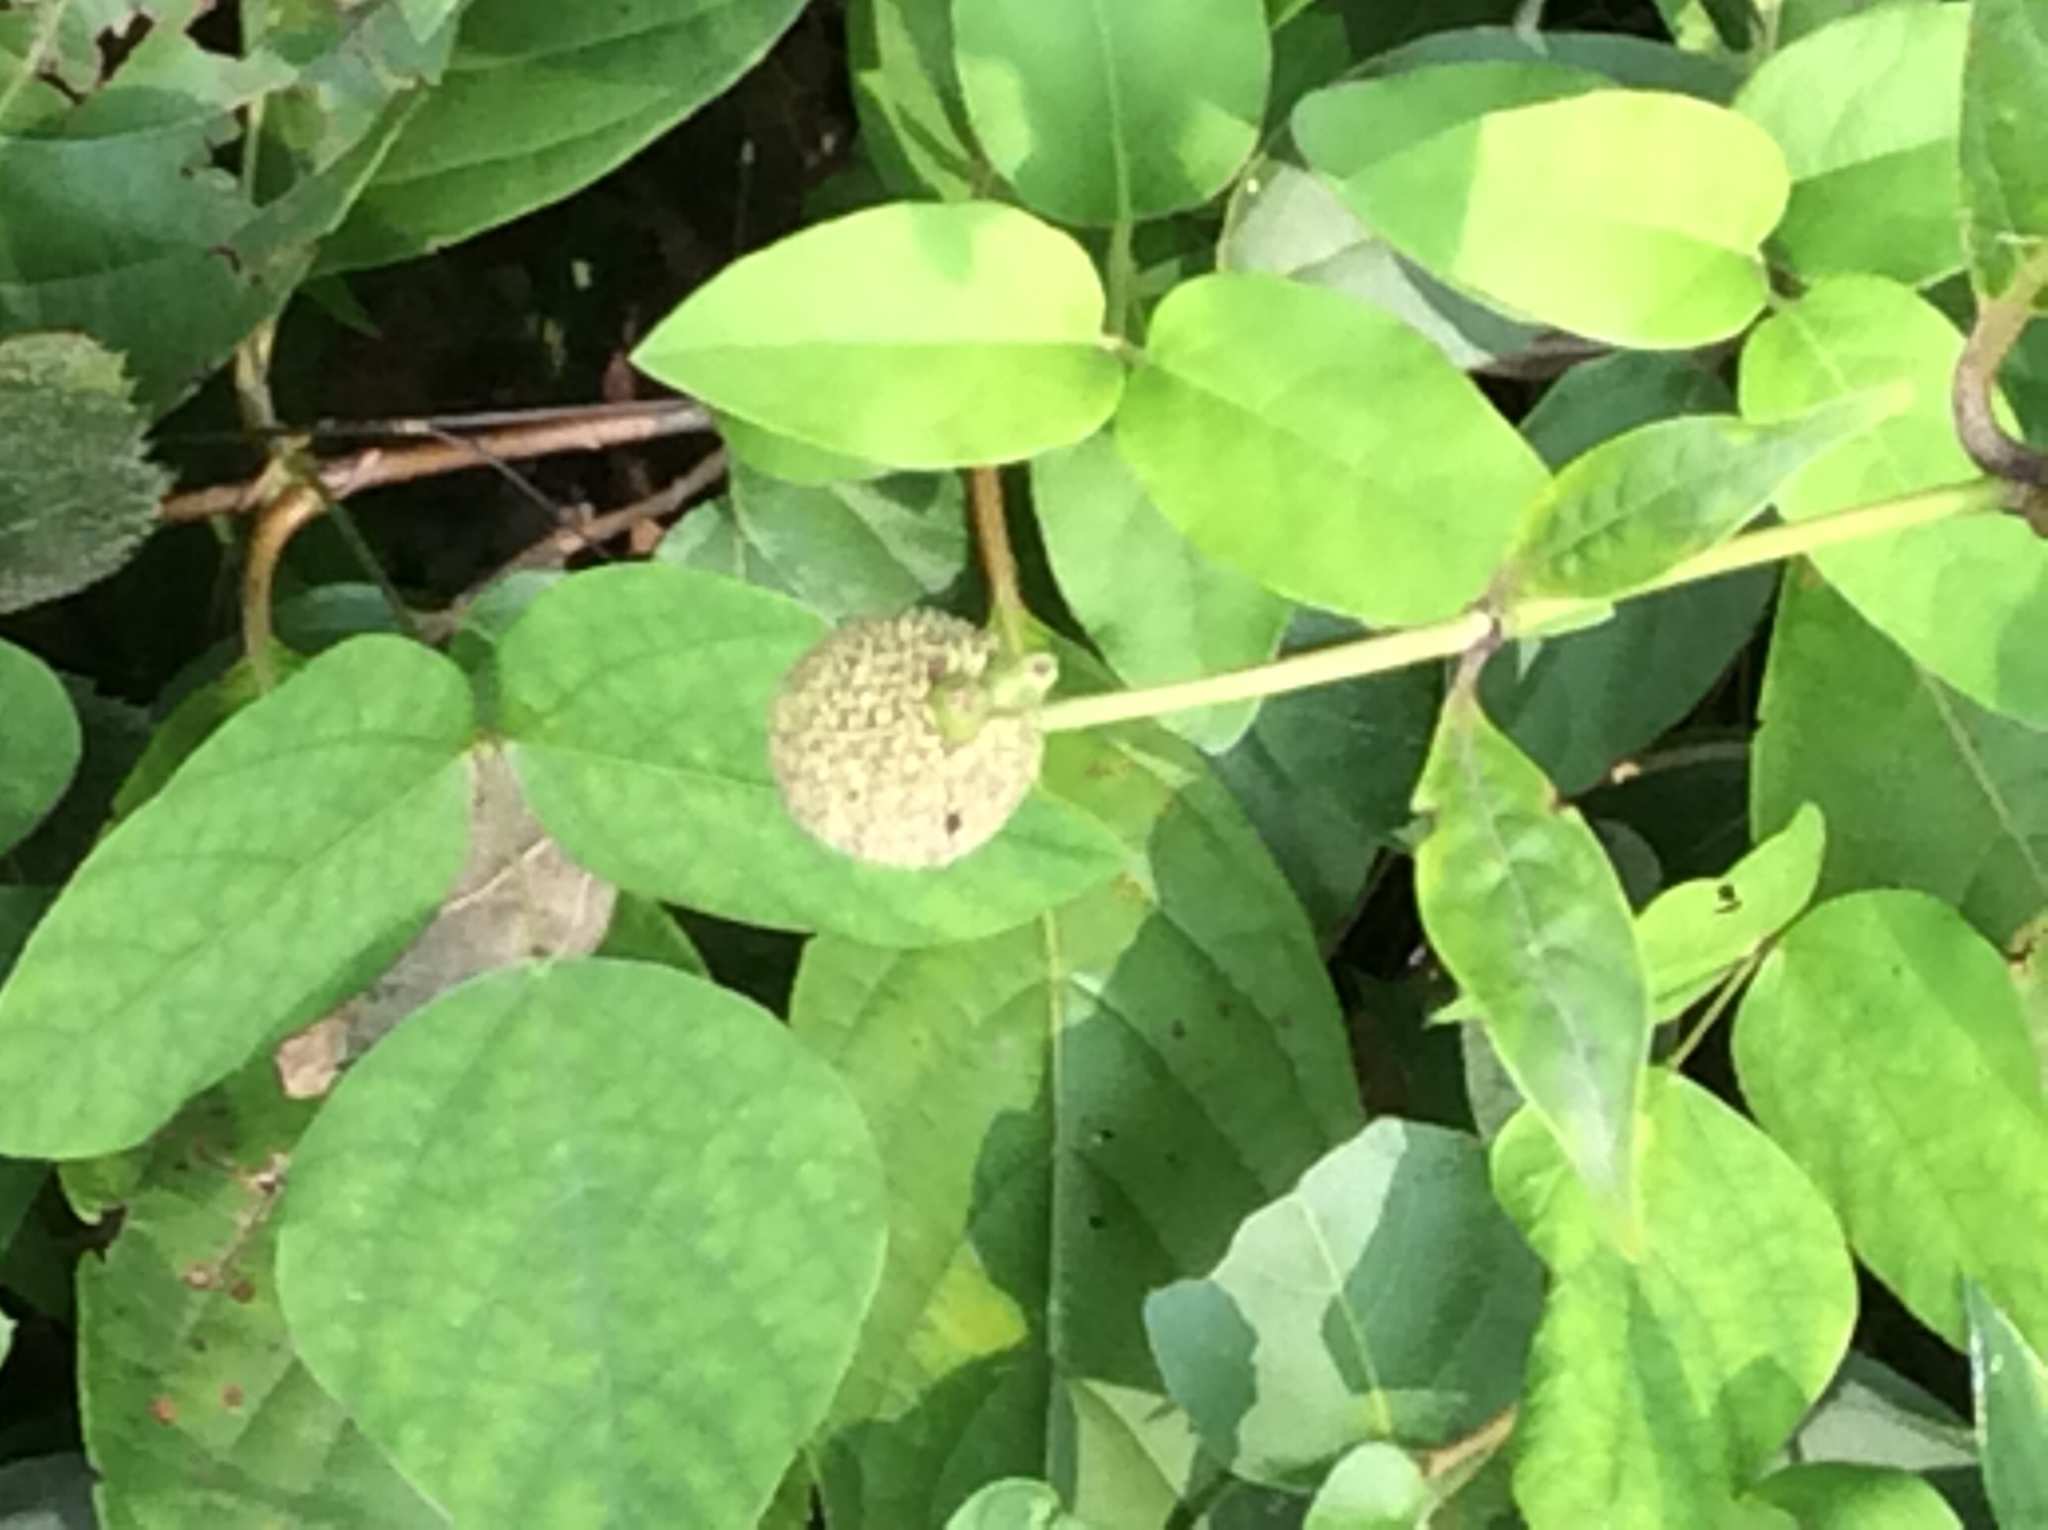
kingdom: Plantae
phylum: Tracheophyta
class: Magnoliopsida
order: Gentianales
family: Rubiaceae
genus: Cephalanthus
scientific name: Cephalanthus occidentalis
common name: Button-willow
